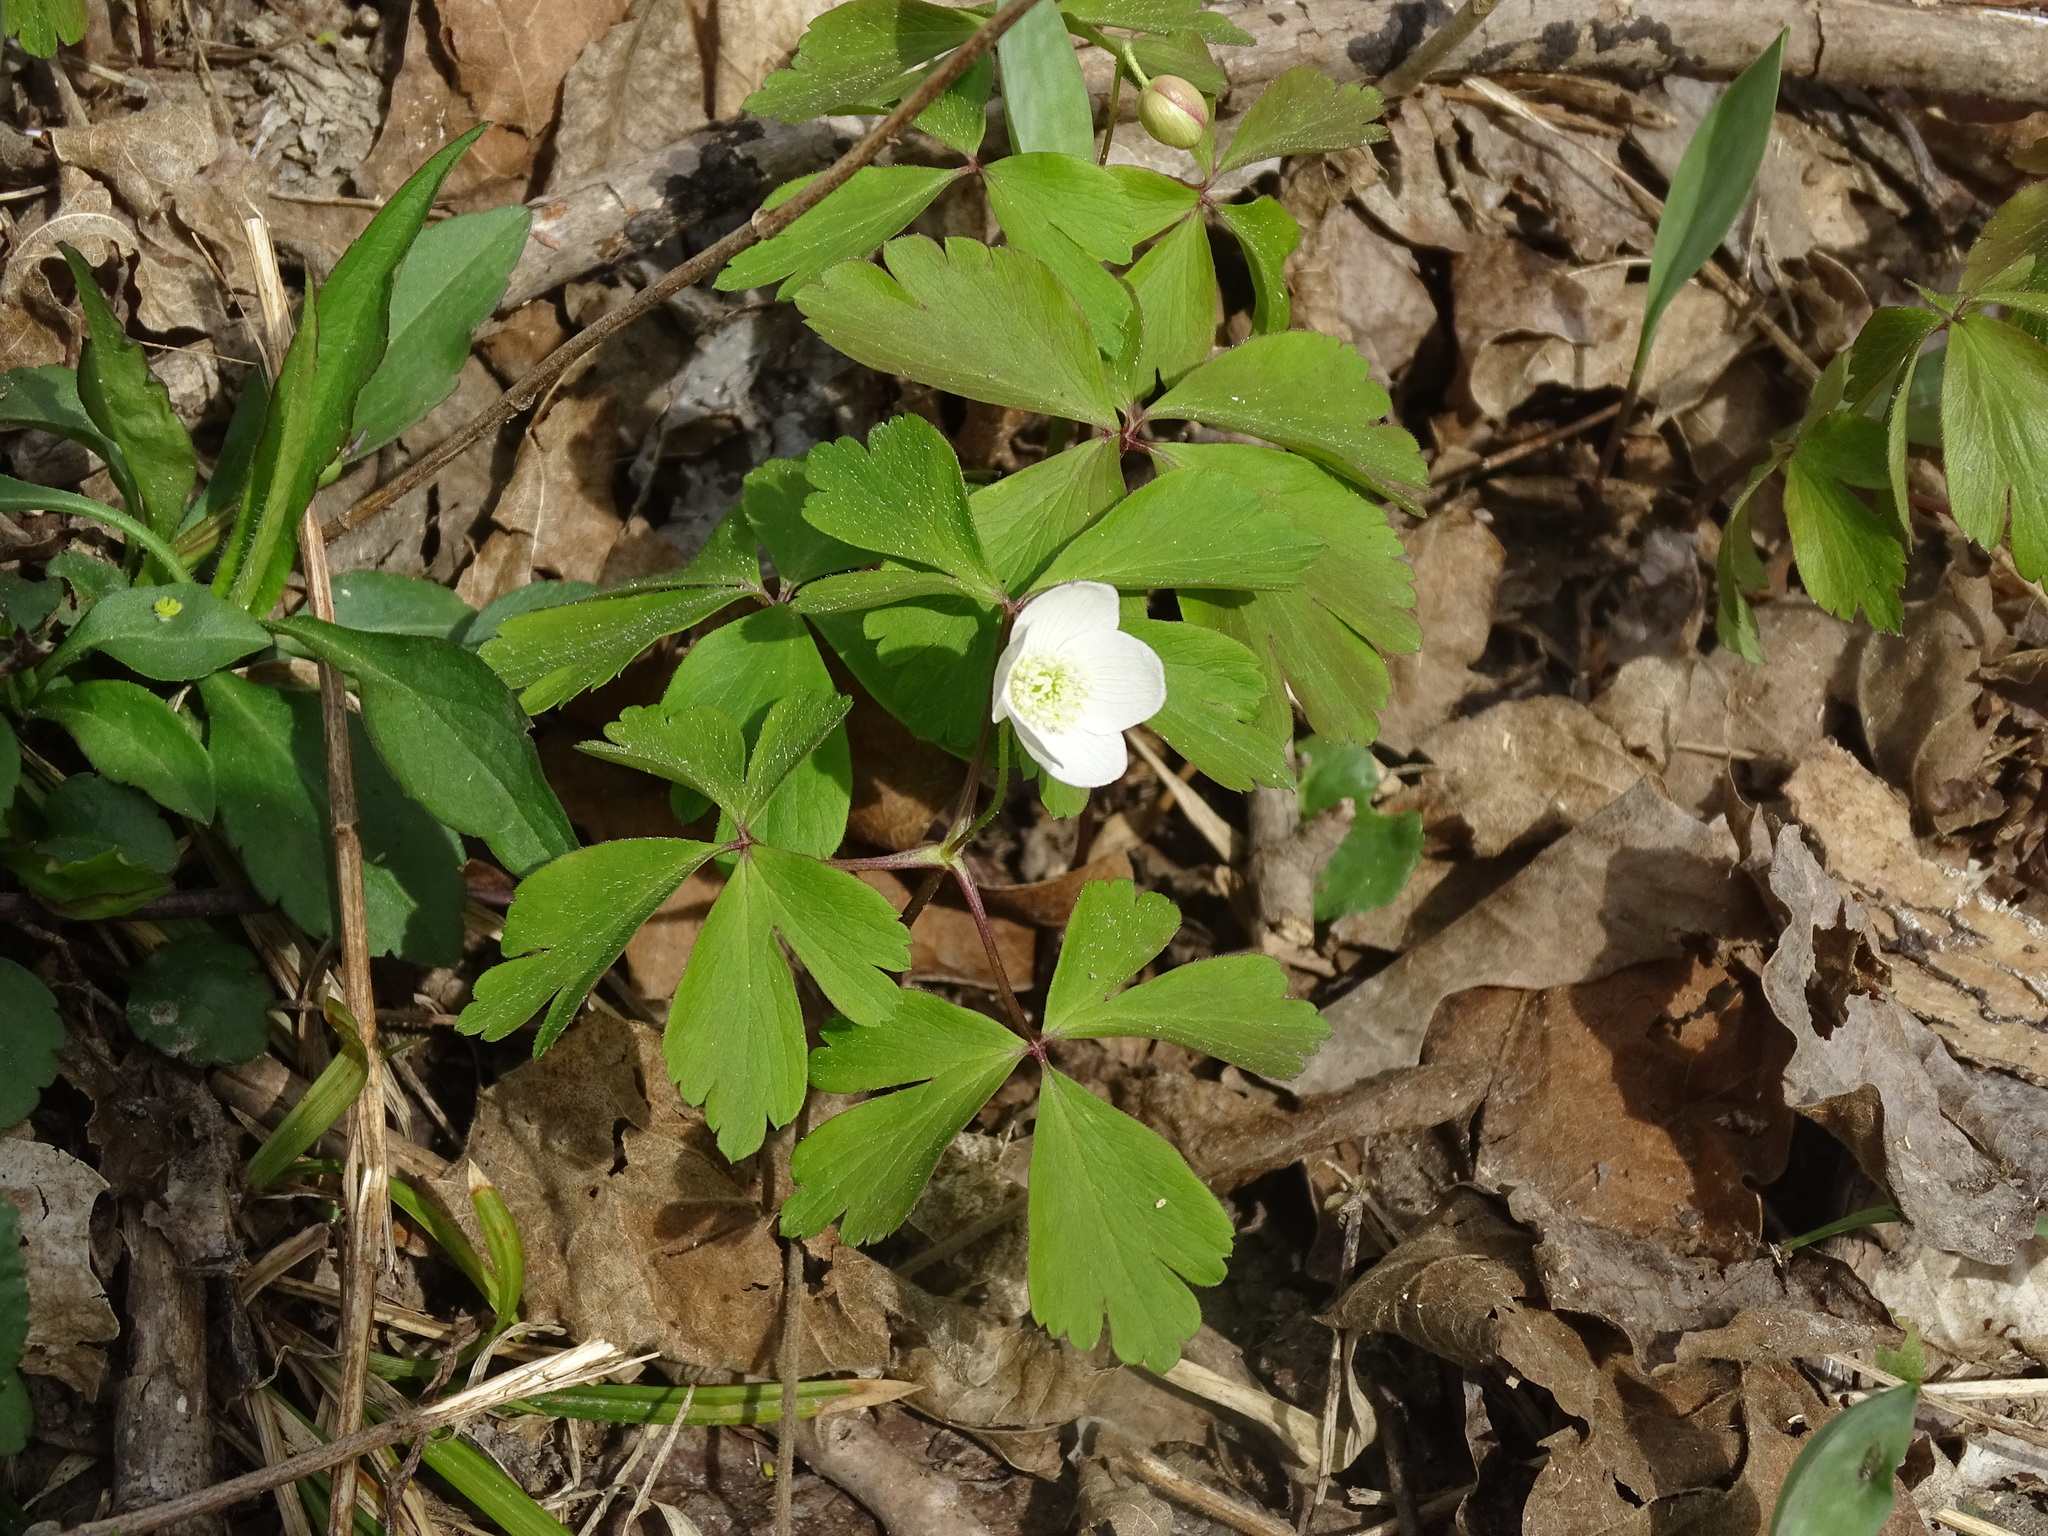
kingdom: Plantae
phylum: Tracheophyta
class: Magnoliopsida
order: Ranunculales
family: Ranunculaceae
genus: Anemone
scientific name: Anemone quinquefolia
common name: Wood anemone
